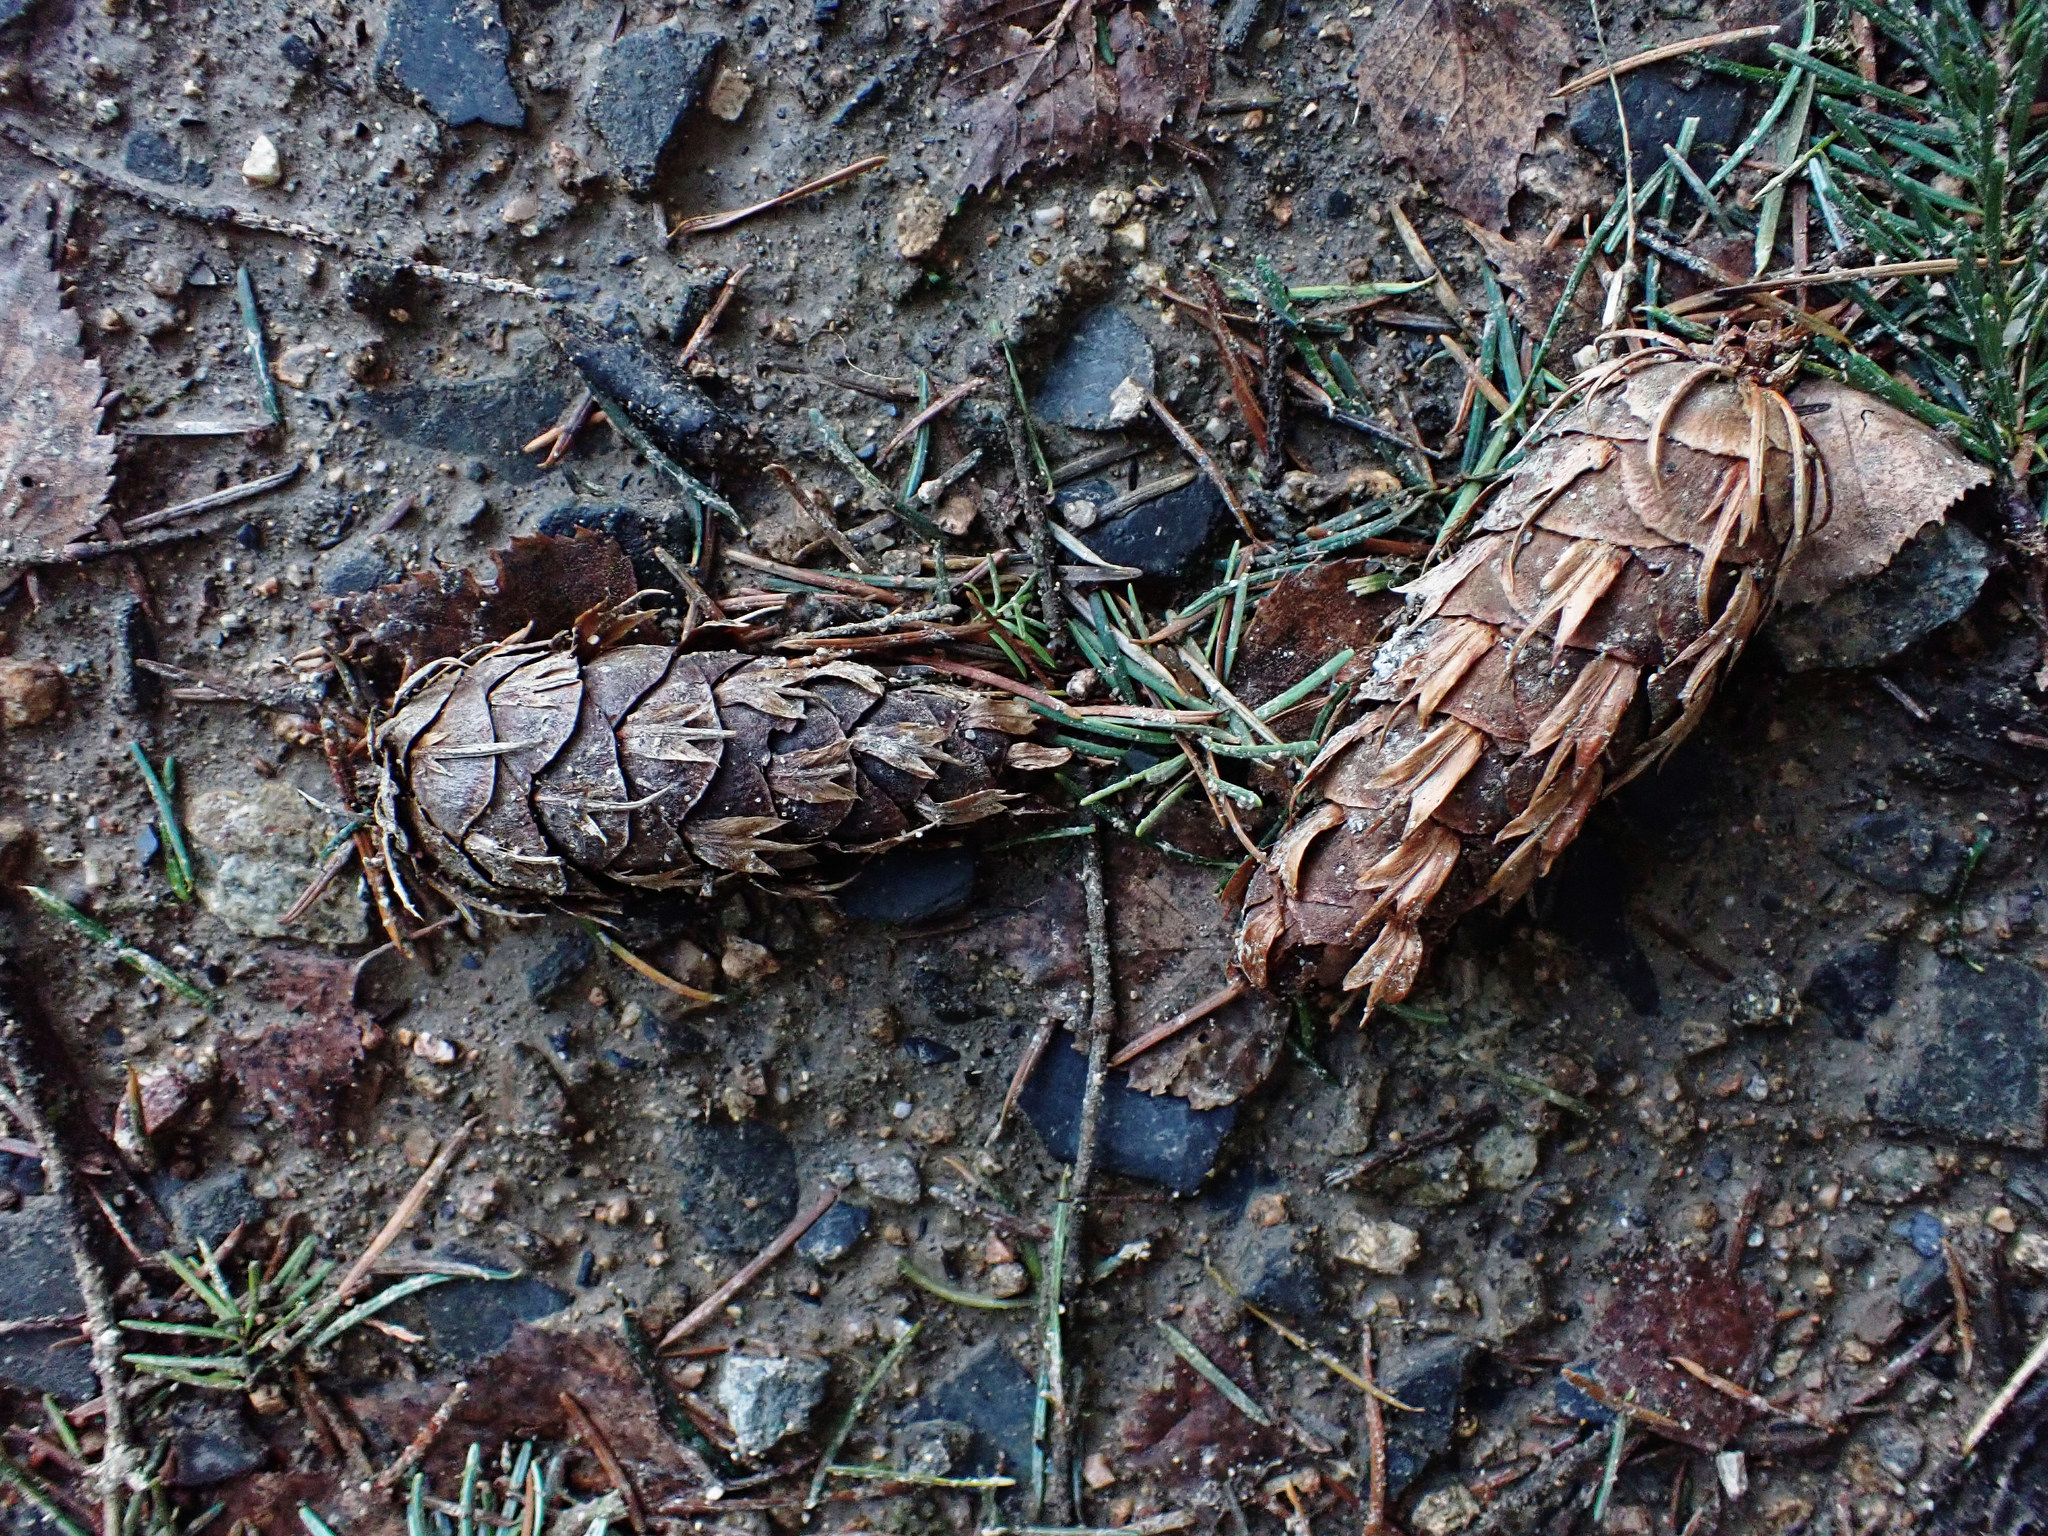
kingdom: Plantae
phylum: Tracheophyta
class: Pinopsida
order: Pinales
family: Pinaceae
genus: Pseudotsuga
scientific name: Pseudotsuga menziesii
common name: Douglas fir
